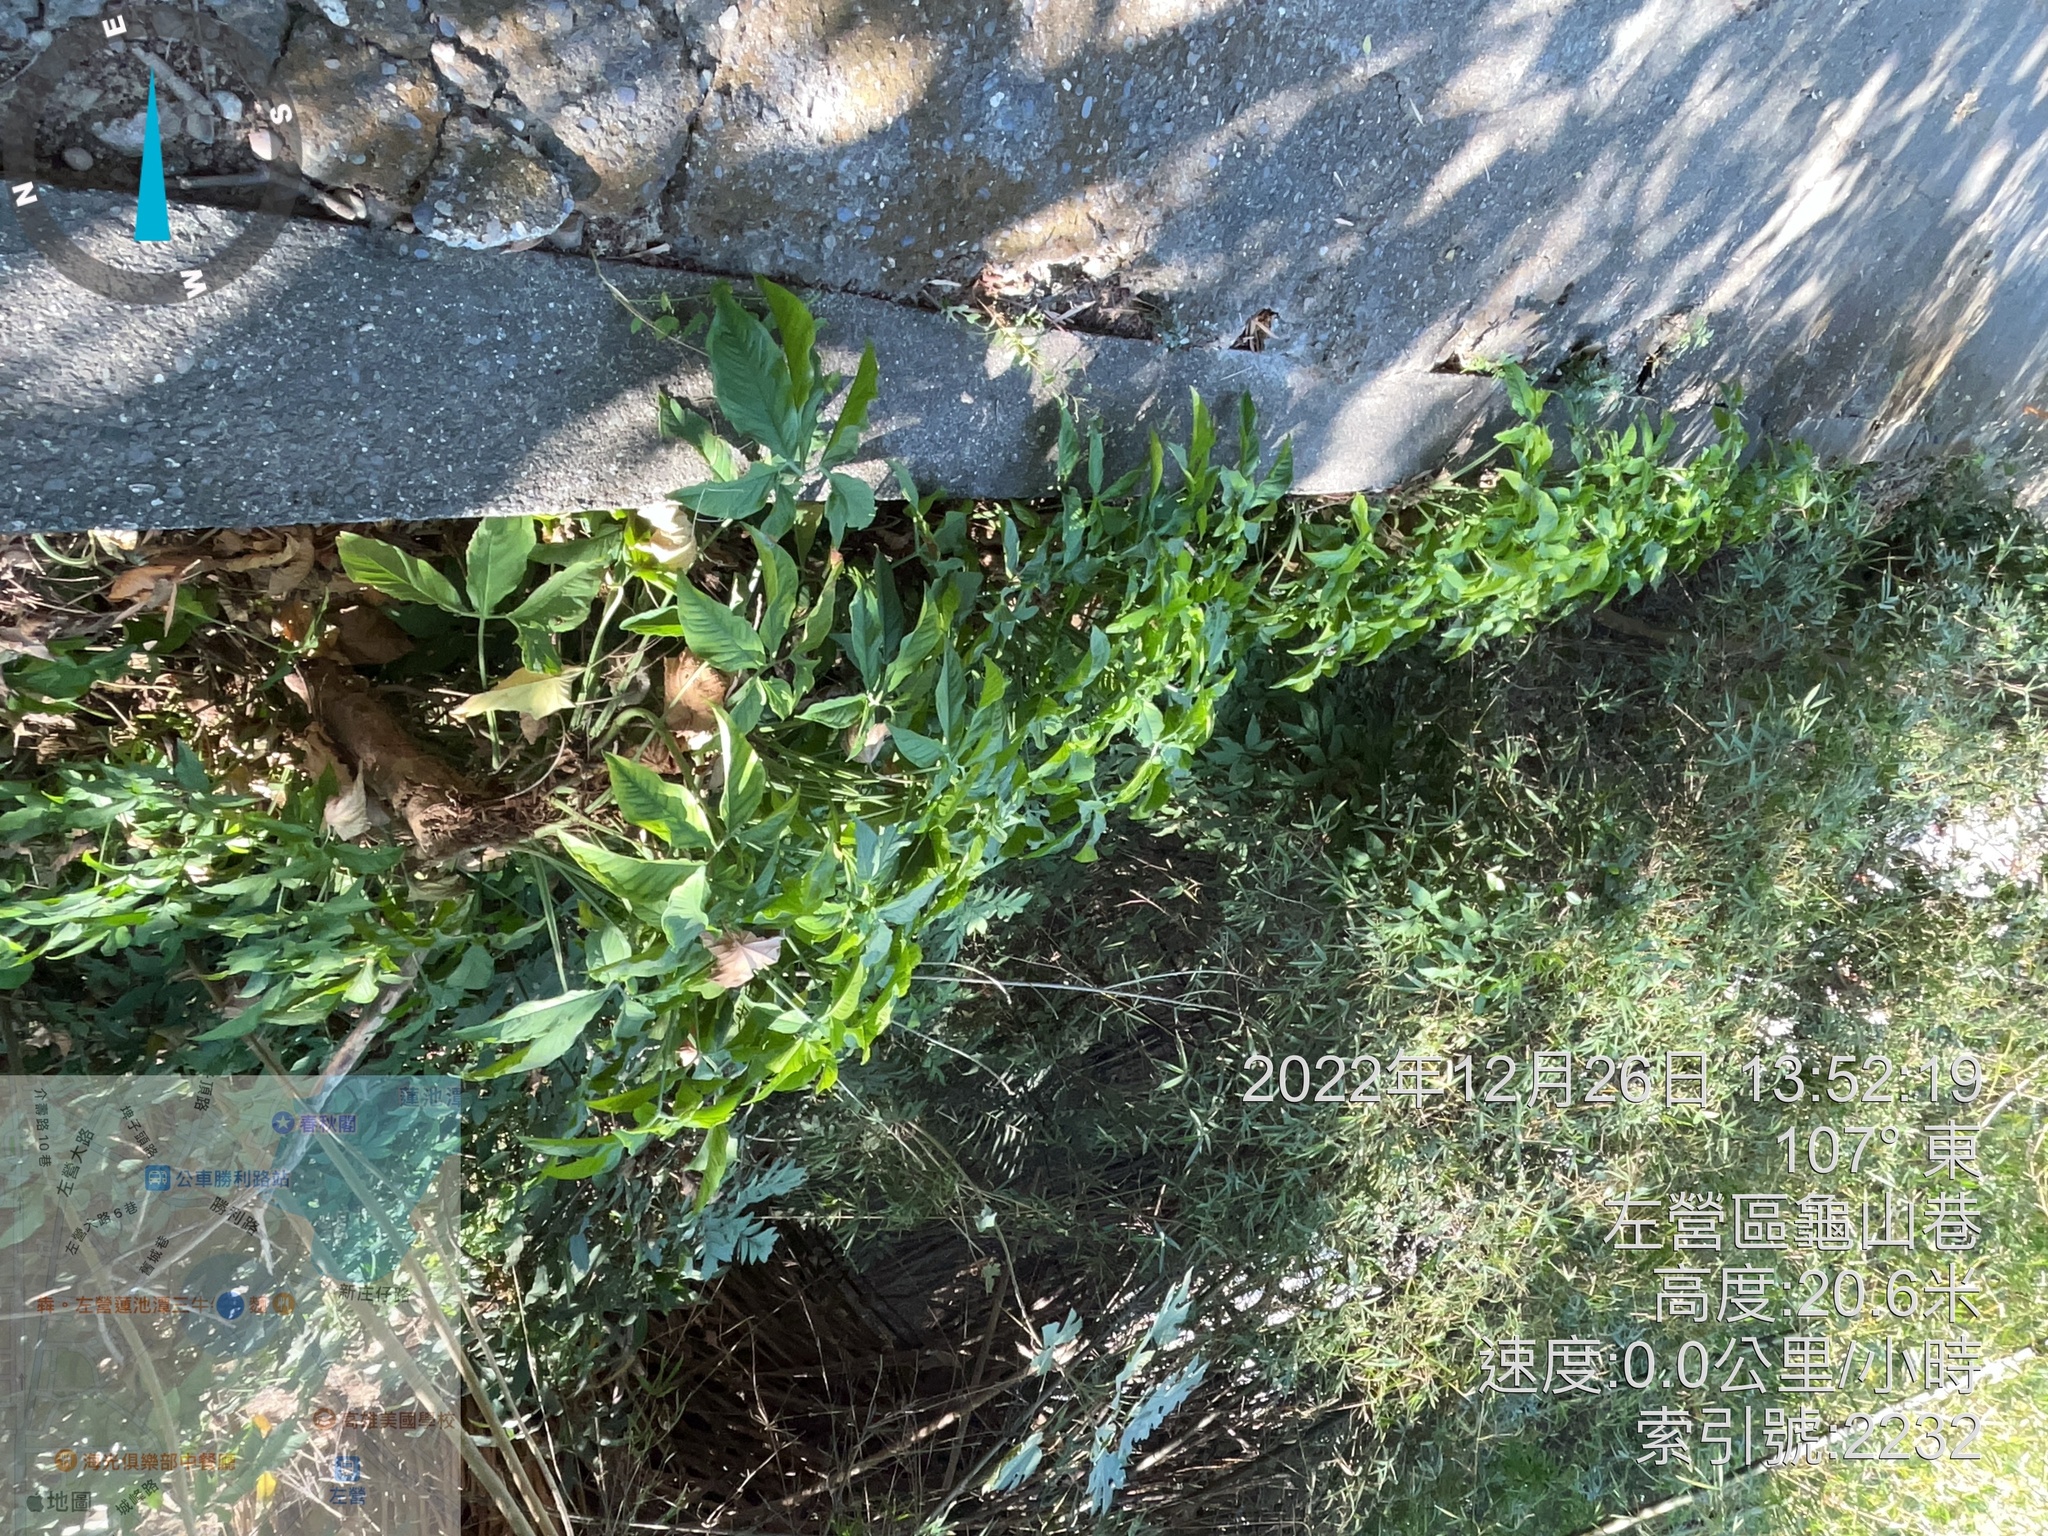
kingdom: Plantae
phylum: Tracheophyta
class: Liliopsida
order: Alismatales
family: Araceae
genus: Syngonium
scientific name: Syngonium angustatum
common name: Fivefingers
